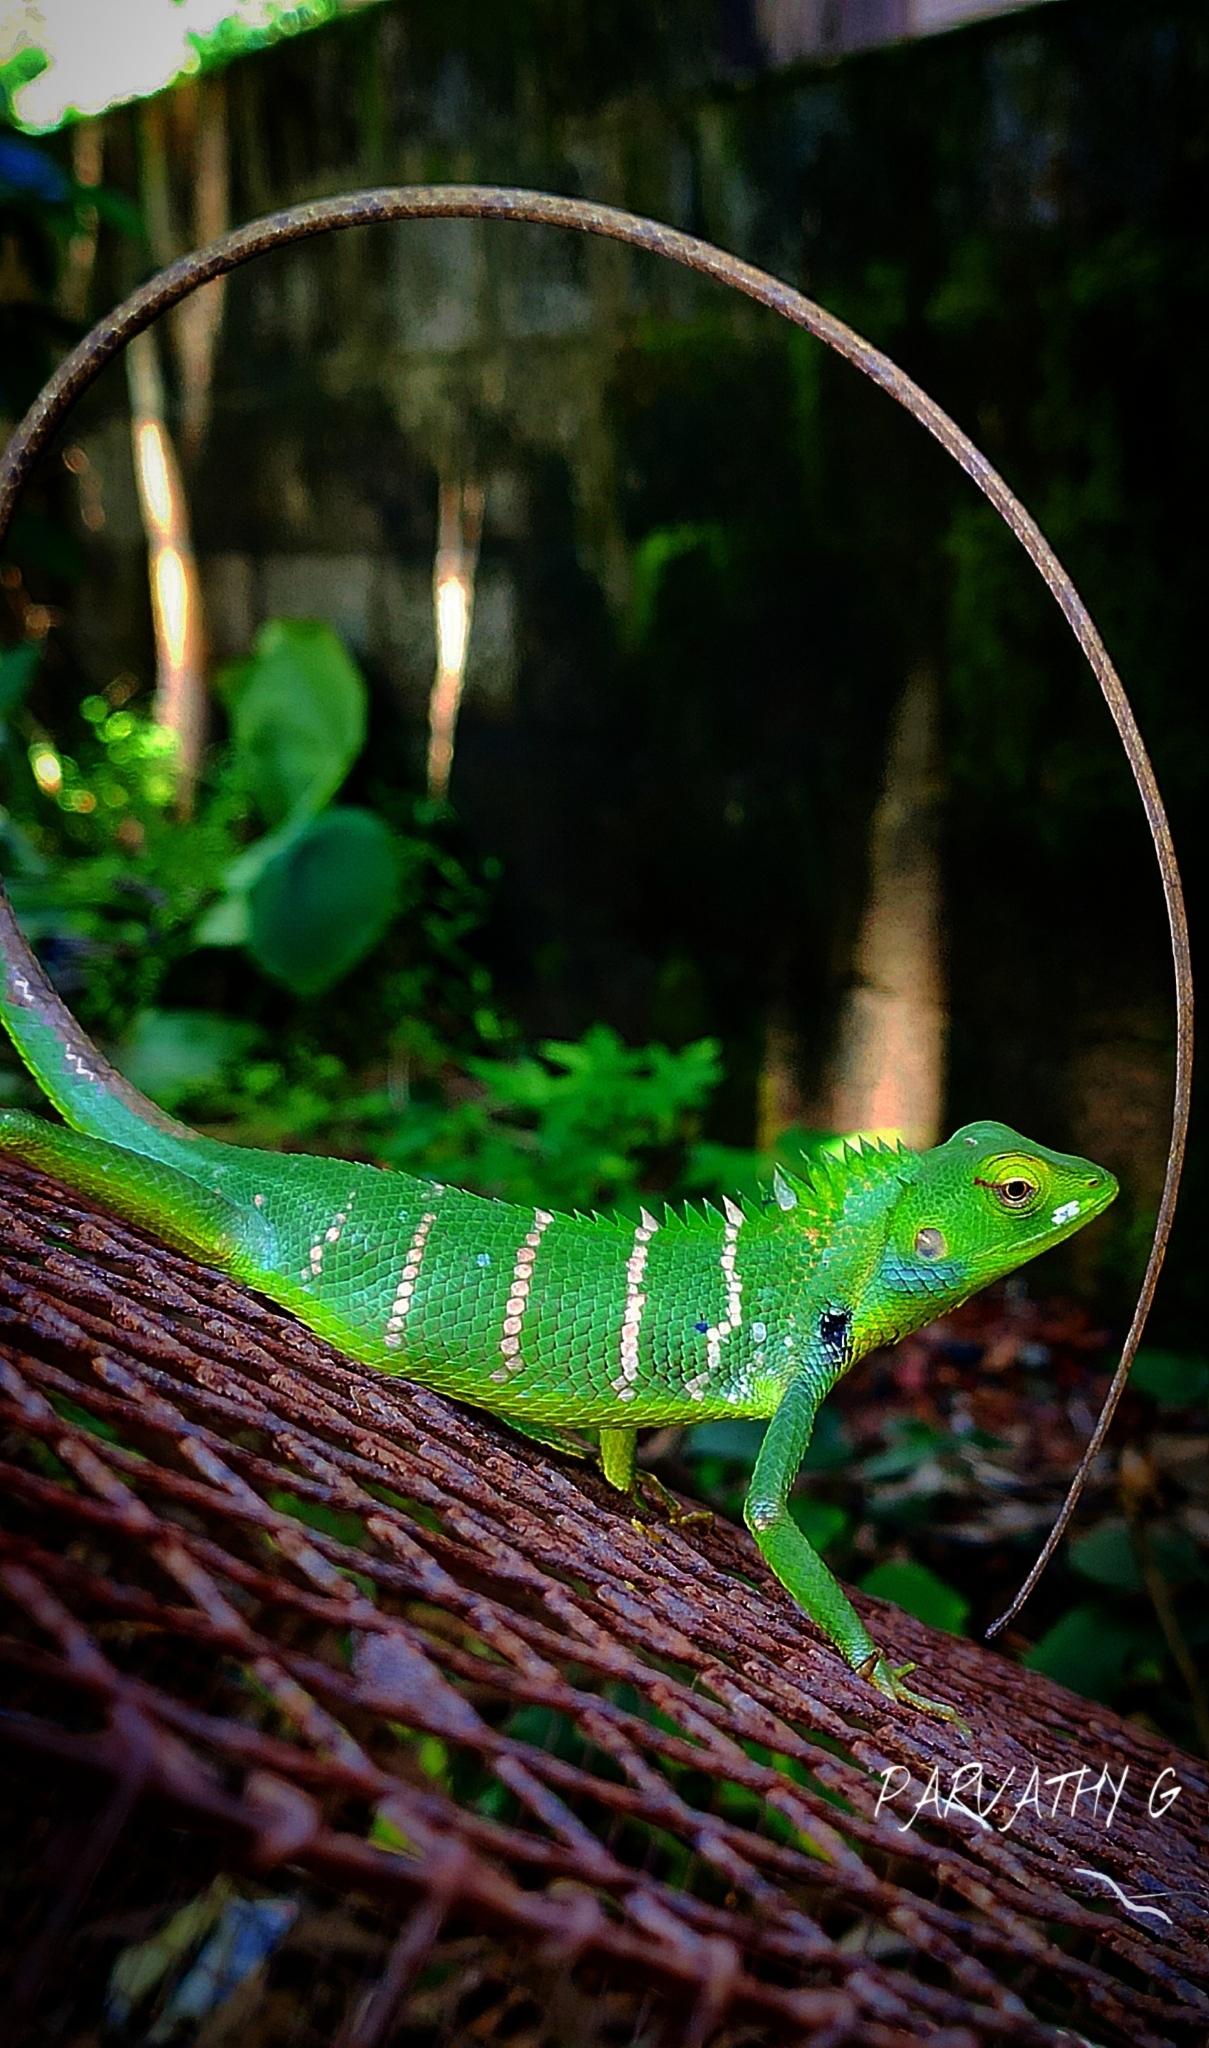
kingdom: Animalia
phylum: Chordata
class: Squamata
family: Agamidae
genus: Calotes
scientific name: Calotes calotes
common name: Common green forest lizard
